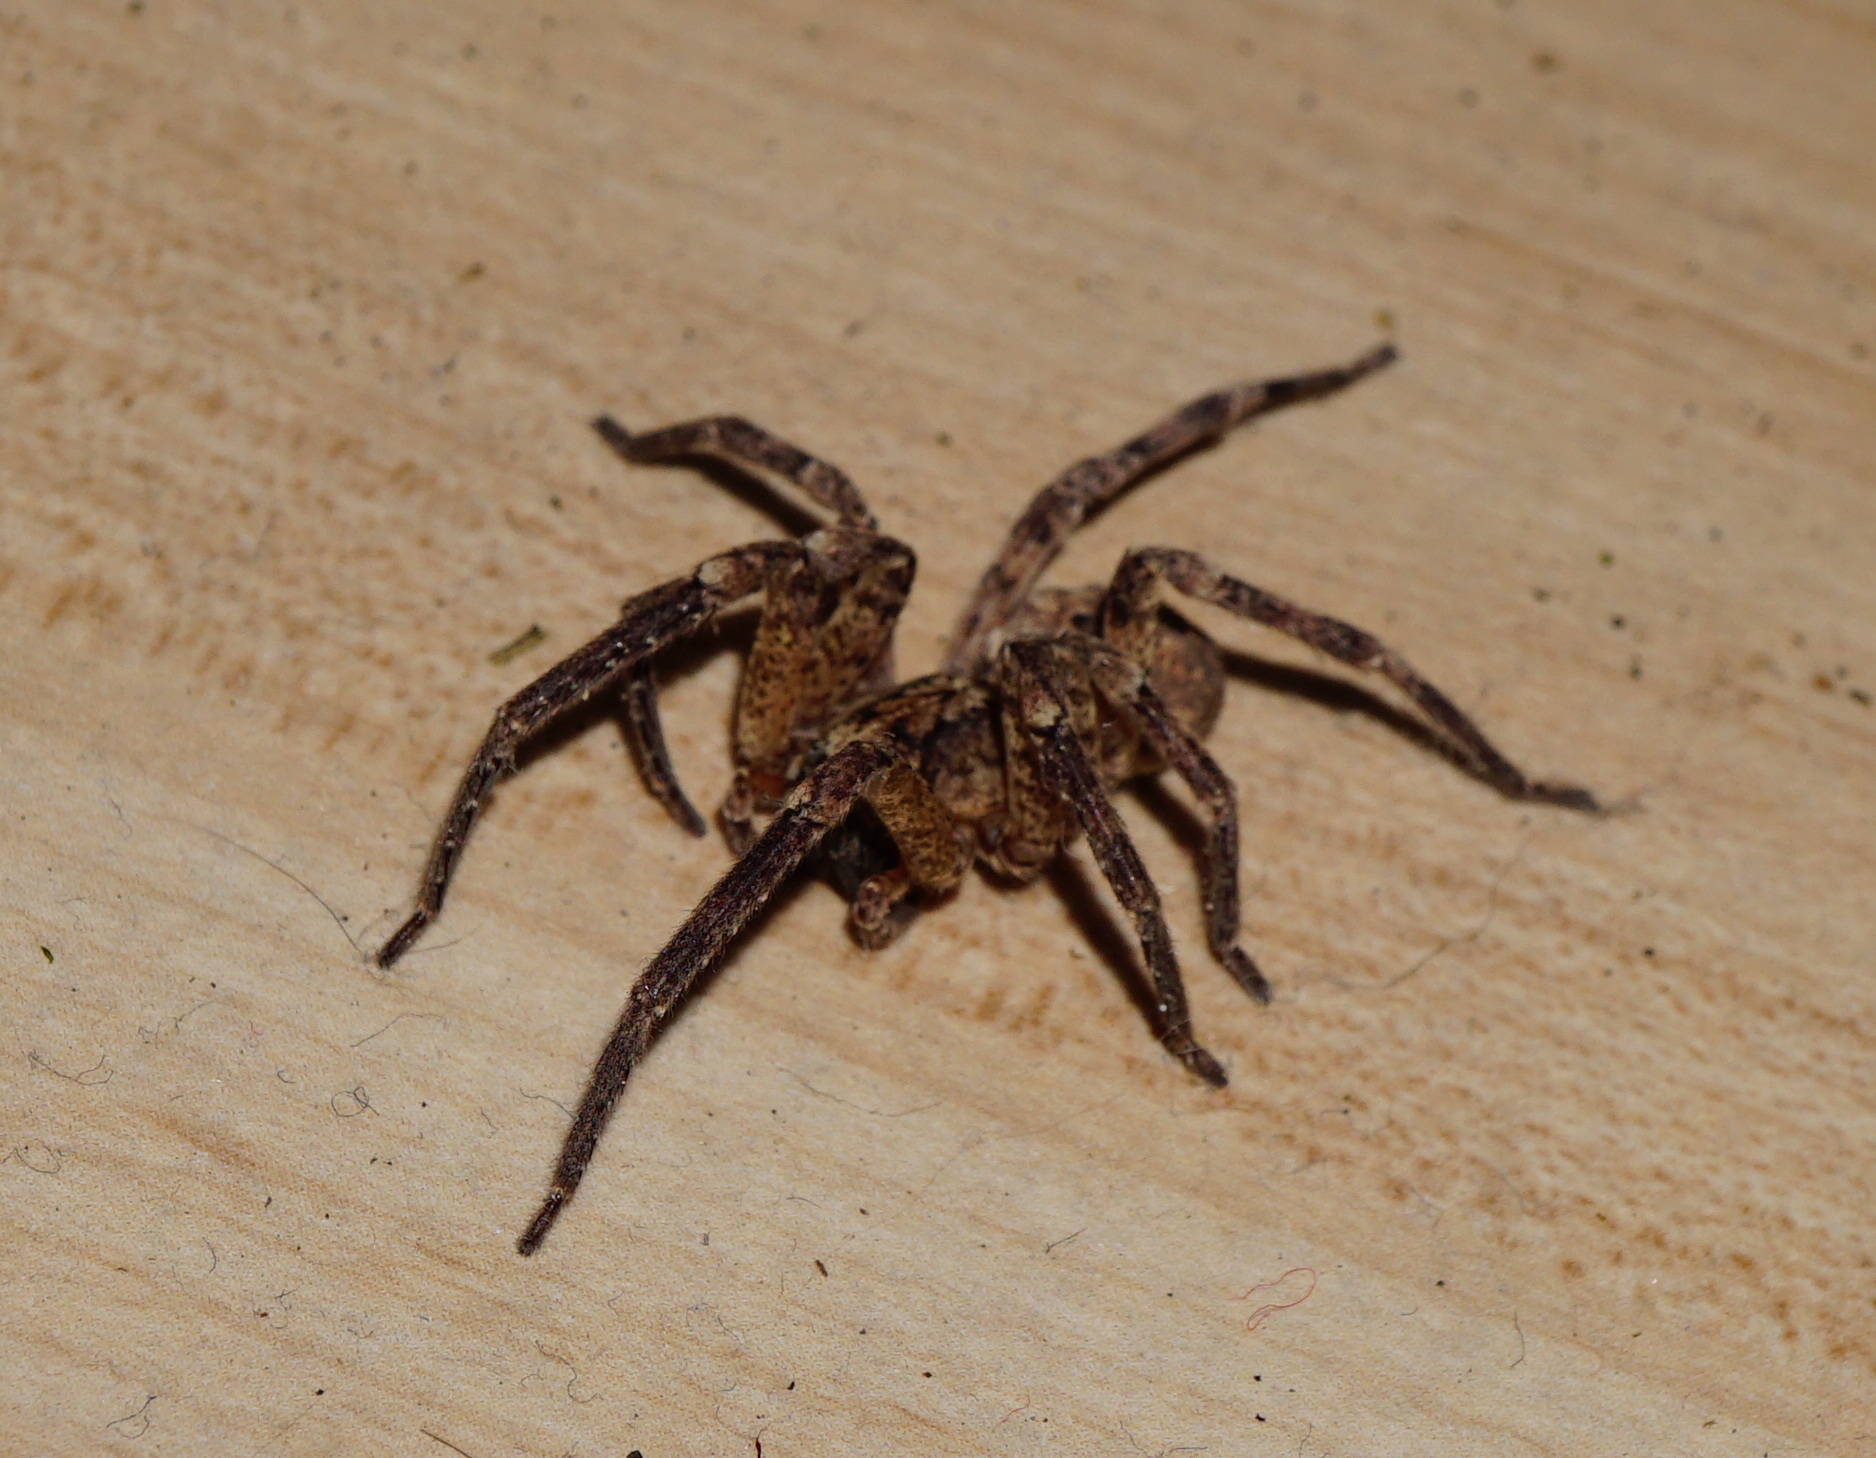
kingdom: Animalia
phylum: Arthropoda
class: Arachnida
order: Araneae
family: Zoropsidae
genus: Zoropsis
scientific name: Zoropsis spinimana
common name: Zoropsid spider
